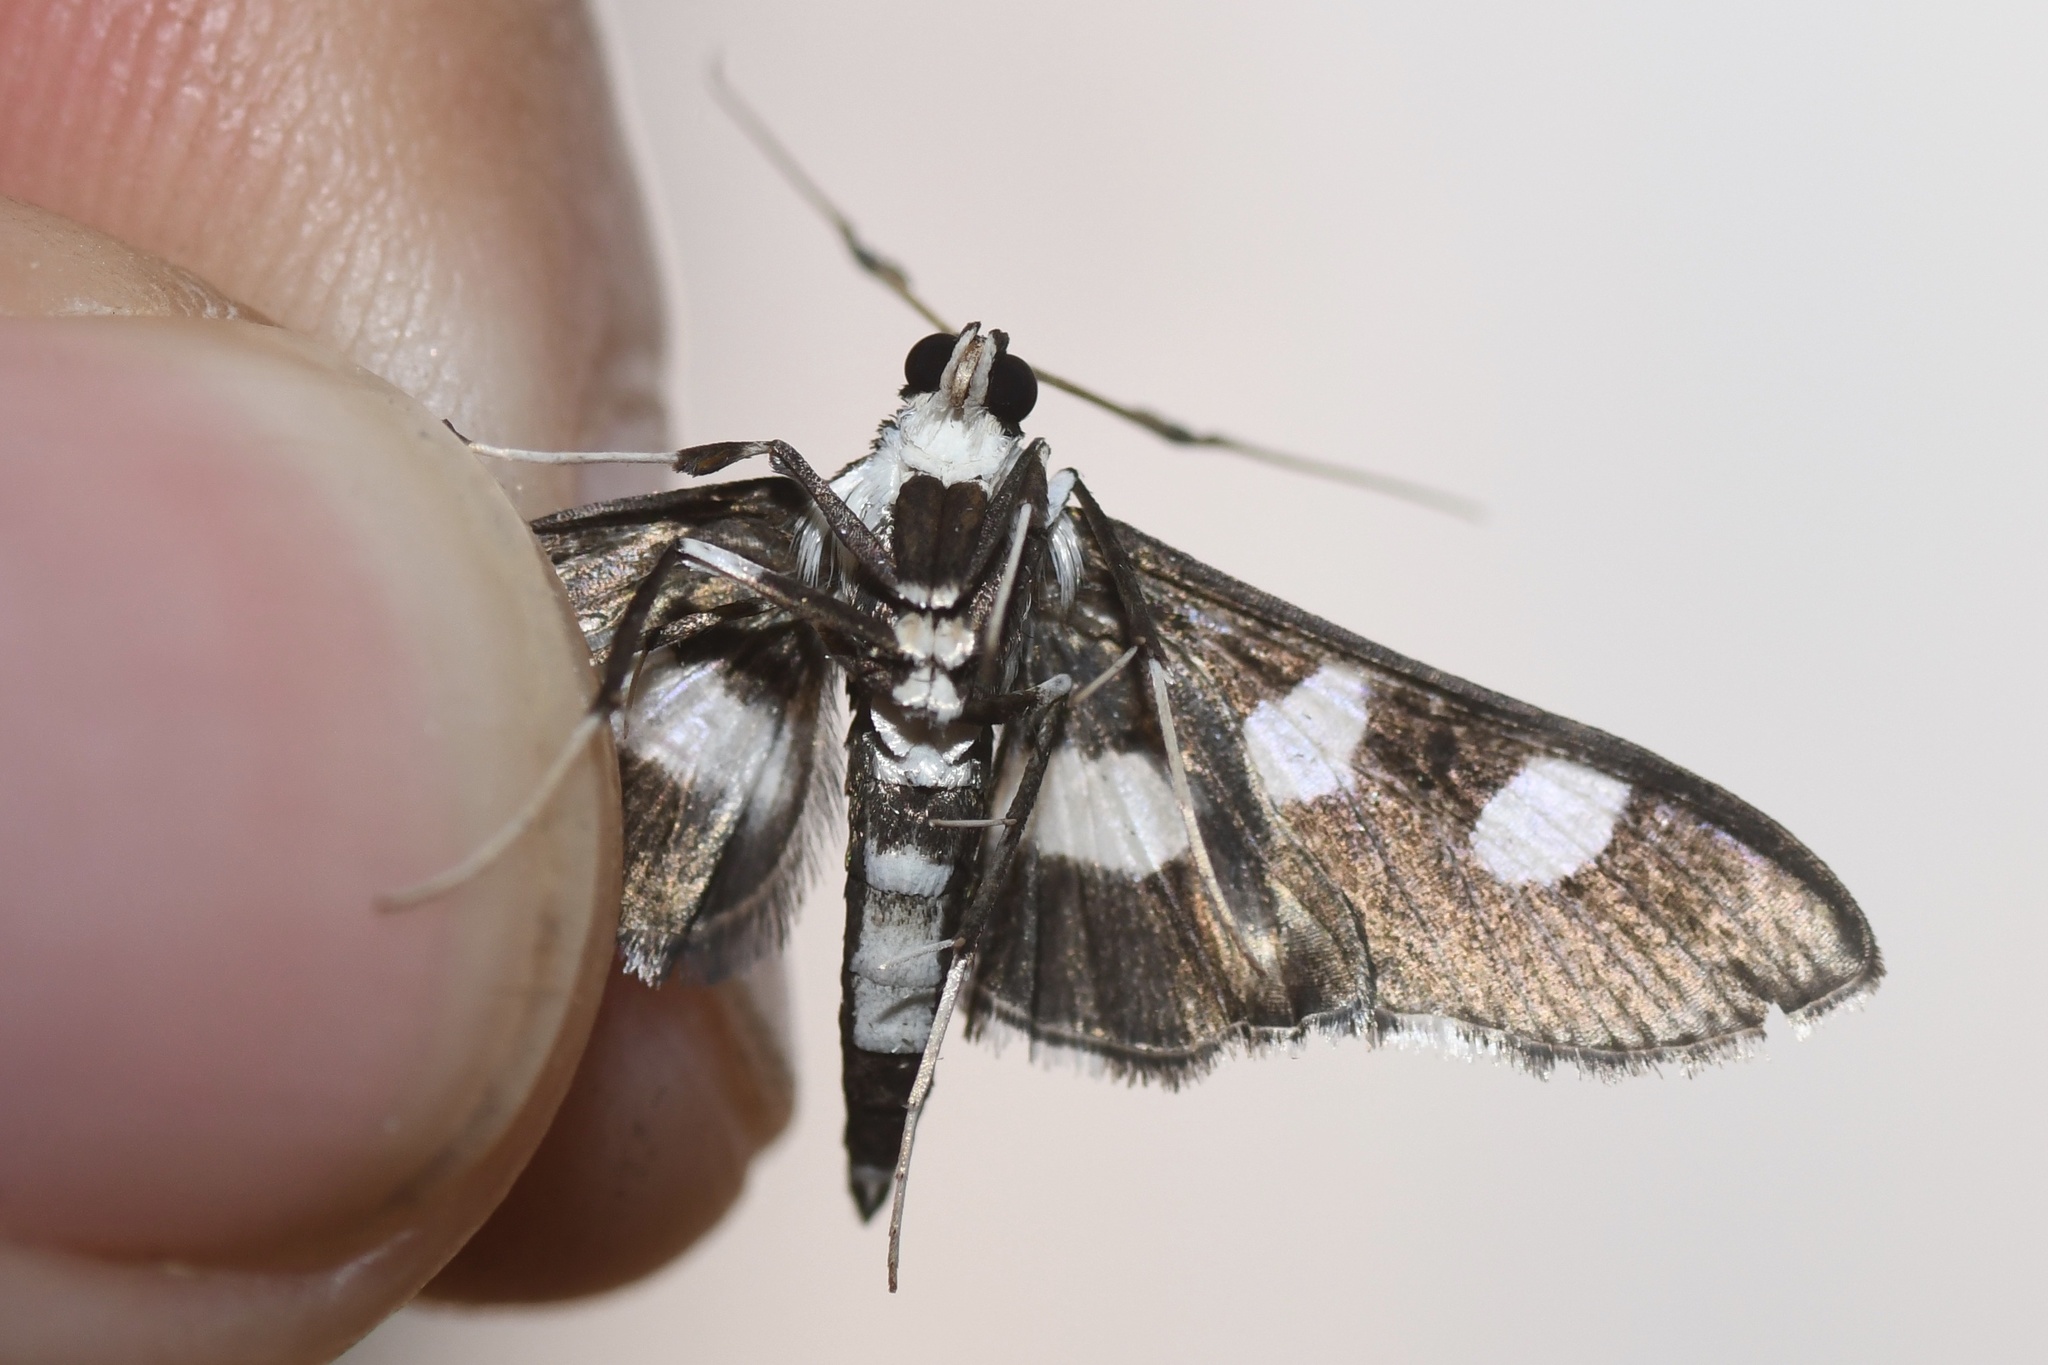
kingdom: Animalia
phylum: Arthropoda
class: Insecta
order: Lepidoptera
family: Crambidae
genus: Desmia
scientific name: Desmia funeralis
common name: Grape leaf folder moth
